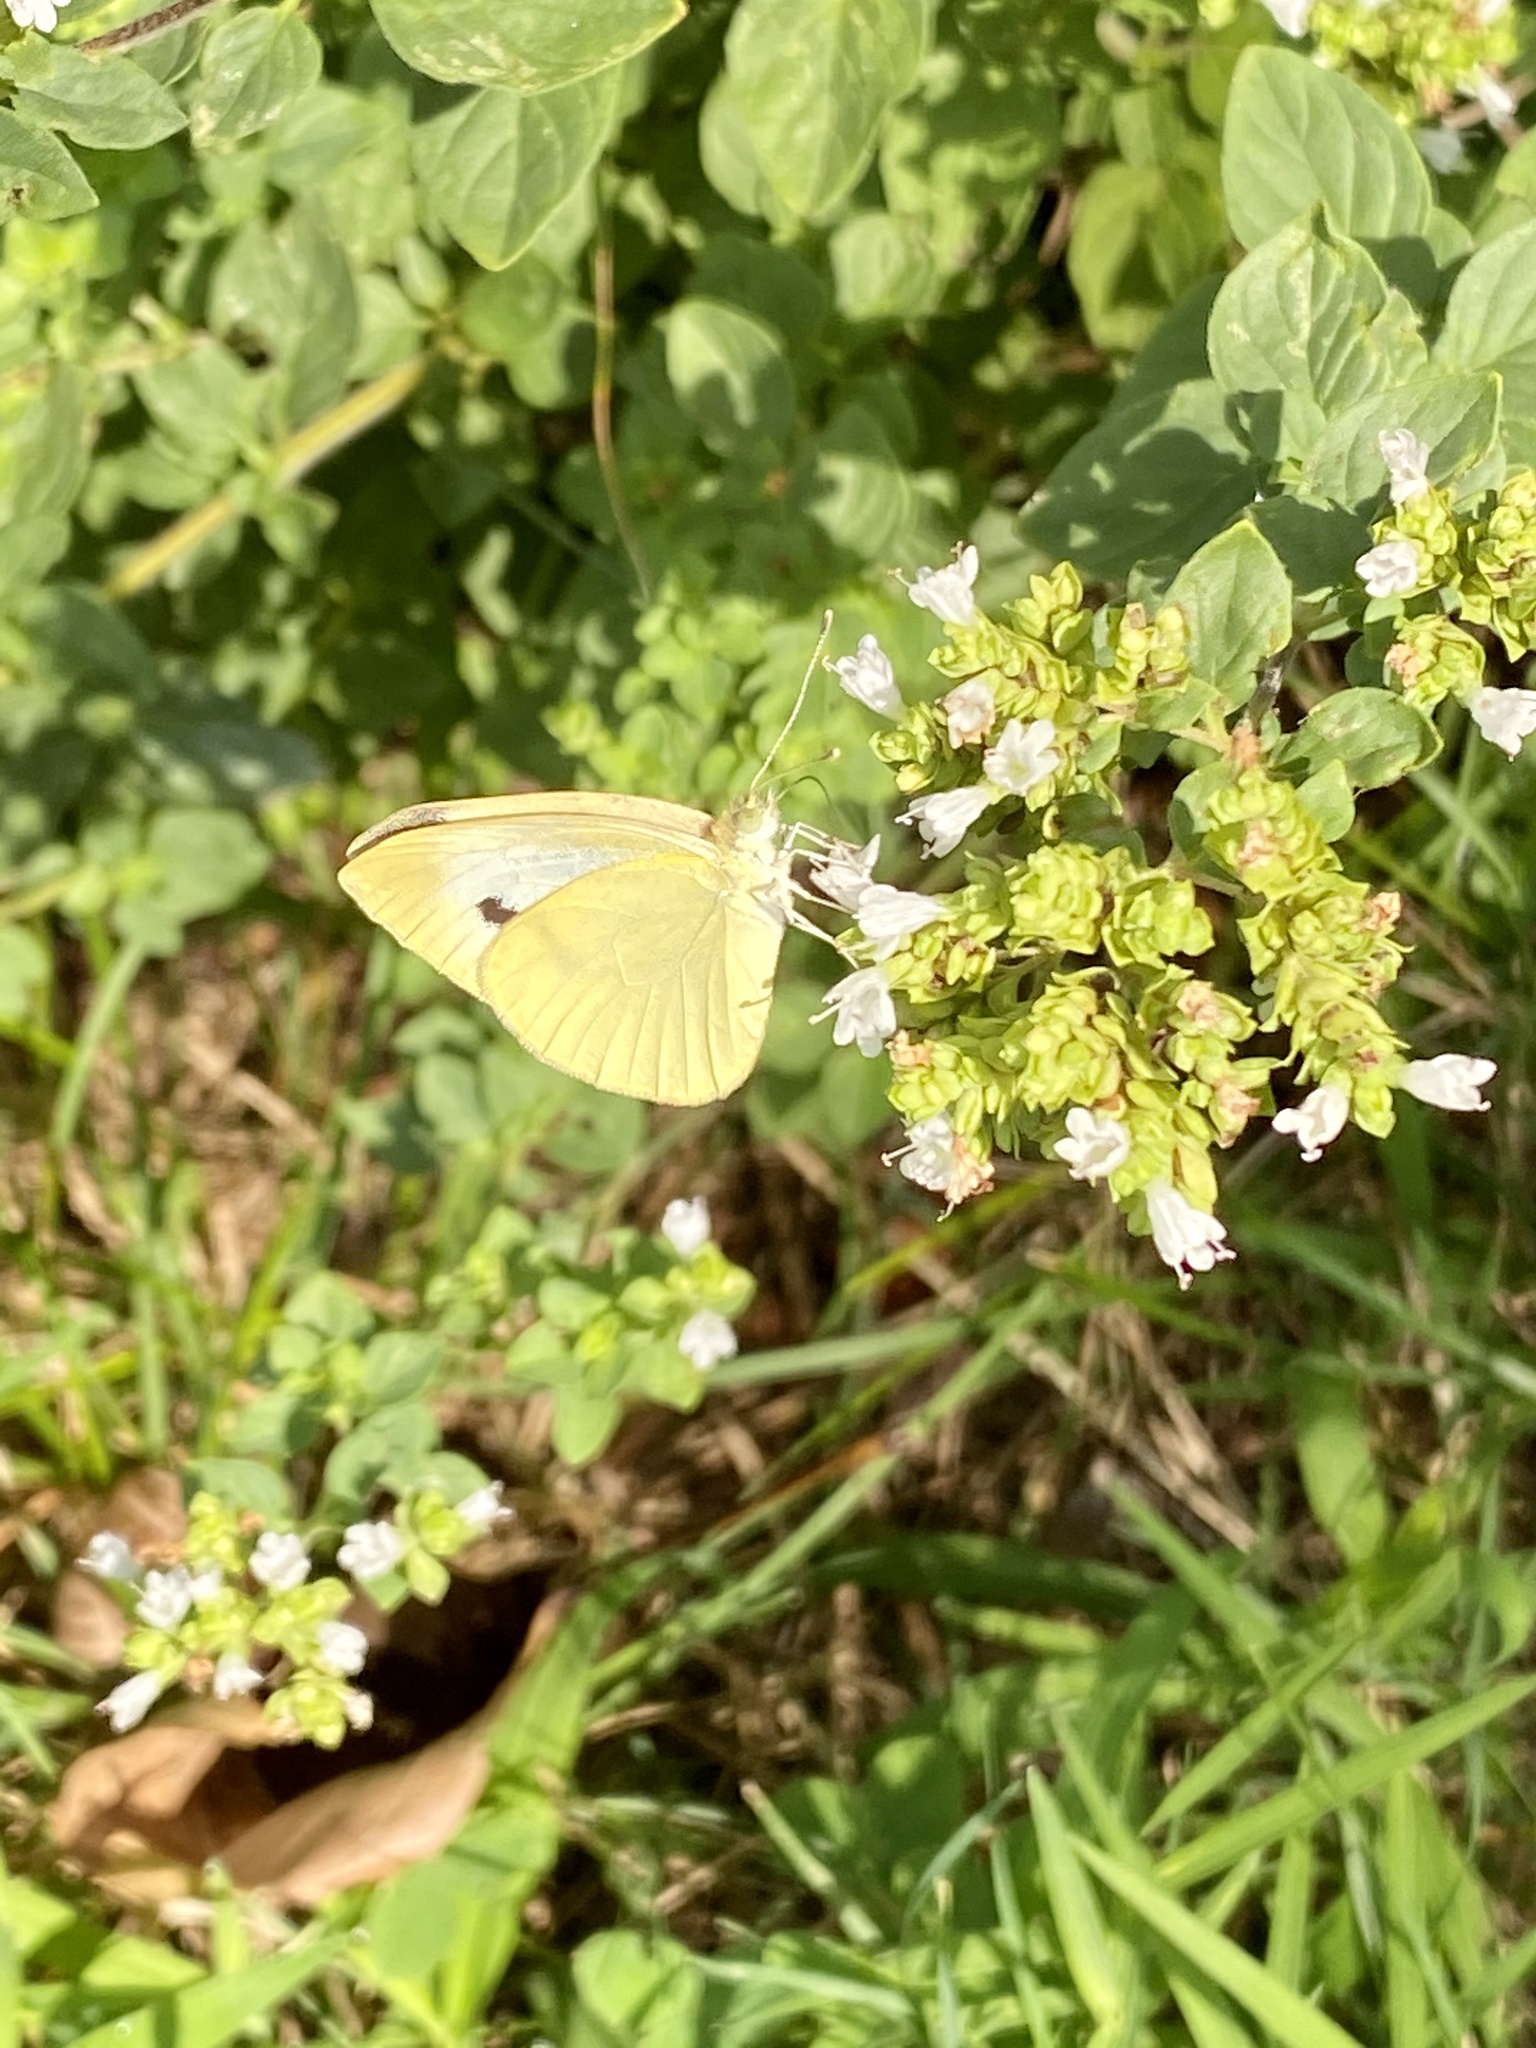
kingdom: Animalia
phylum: Arthropoda
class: Insecta
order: Lepidoptera
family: Pieridae
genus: Pieris
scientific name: Pieris rapae
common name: Small white
